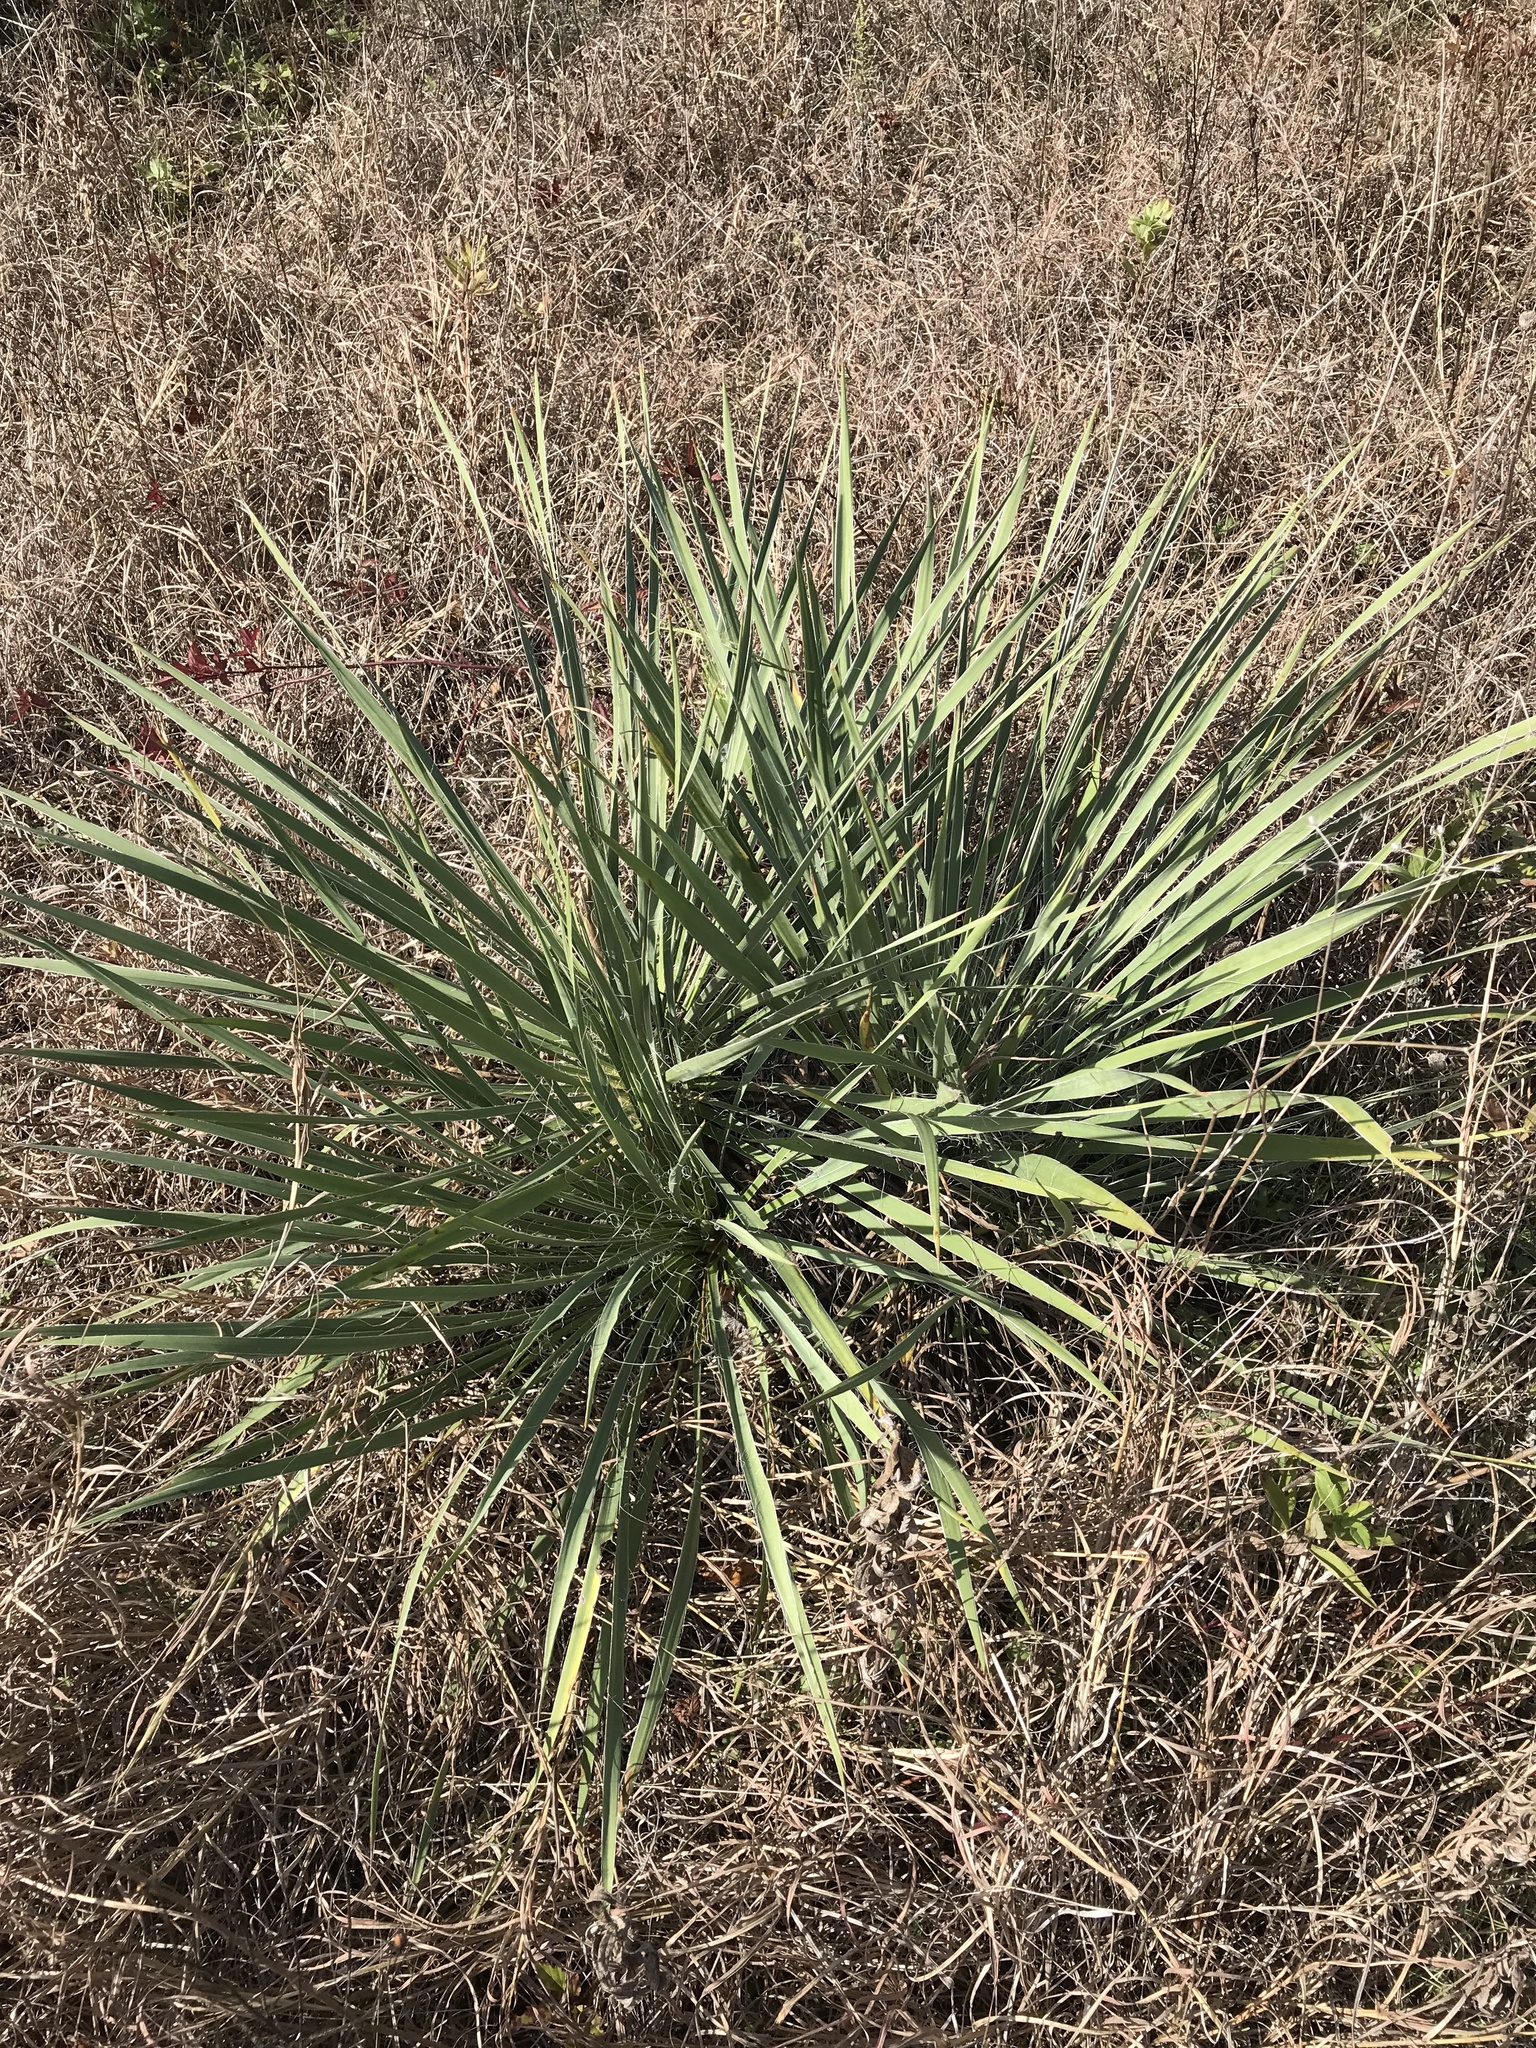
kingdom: Plantae
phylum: Tracheophyta
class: Liliopsida
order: Asparagales
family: Asparagaceae
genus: Yucca
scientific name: Yucca arkansana
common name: Arkansas yucca
